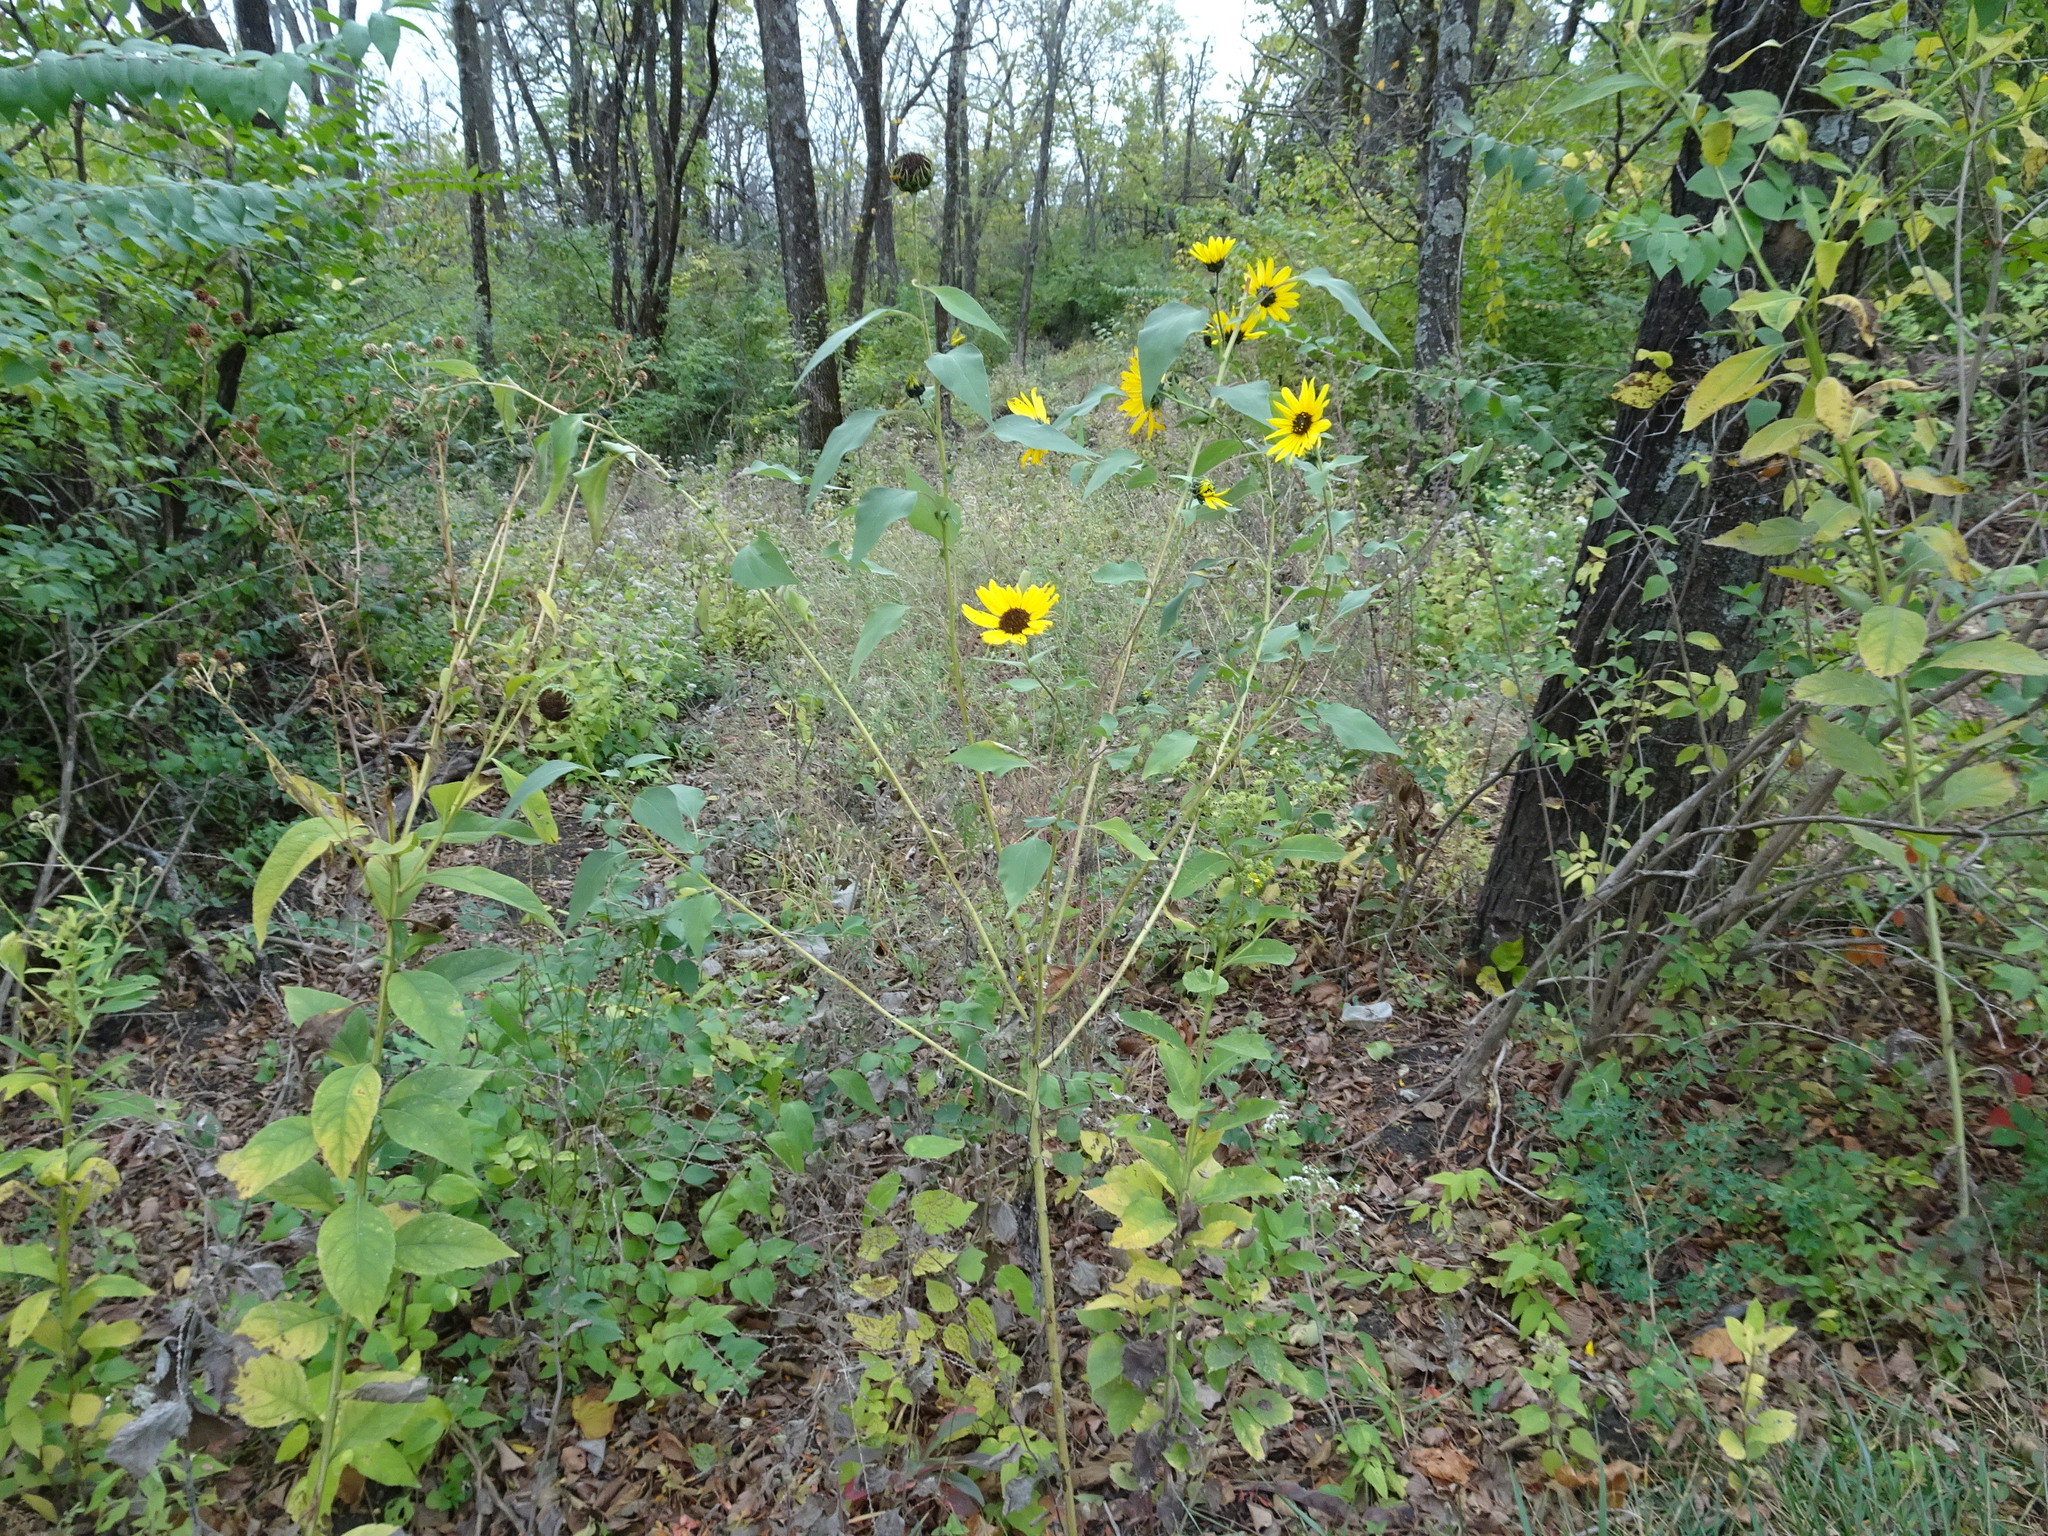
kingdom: Plantae
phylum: Tracheophyta
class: Magnoliopsida
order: Asterales
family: Asteraceae
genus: Helianthus
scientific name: Helianthus annuus
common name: Sunflower
